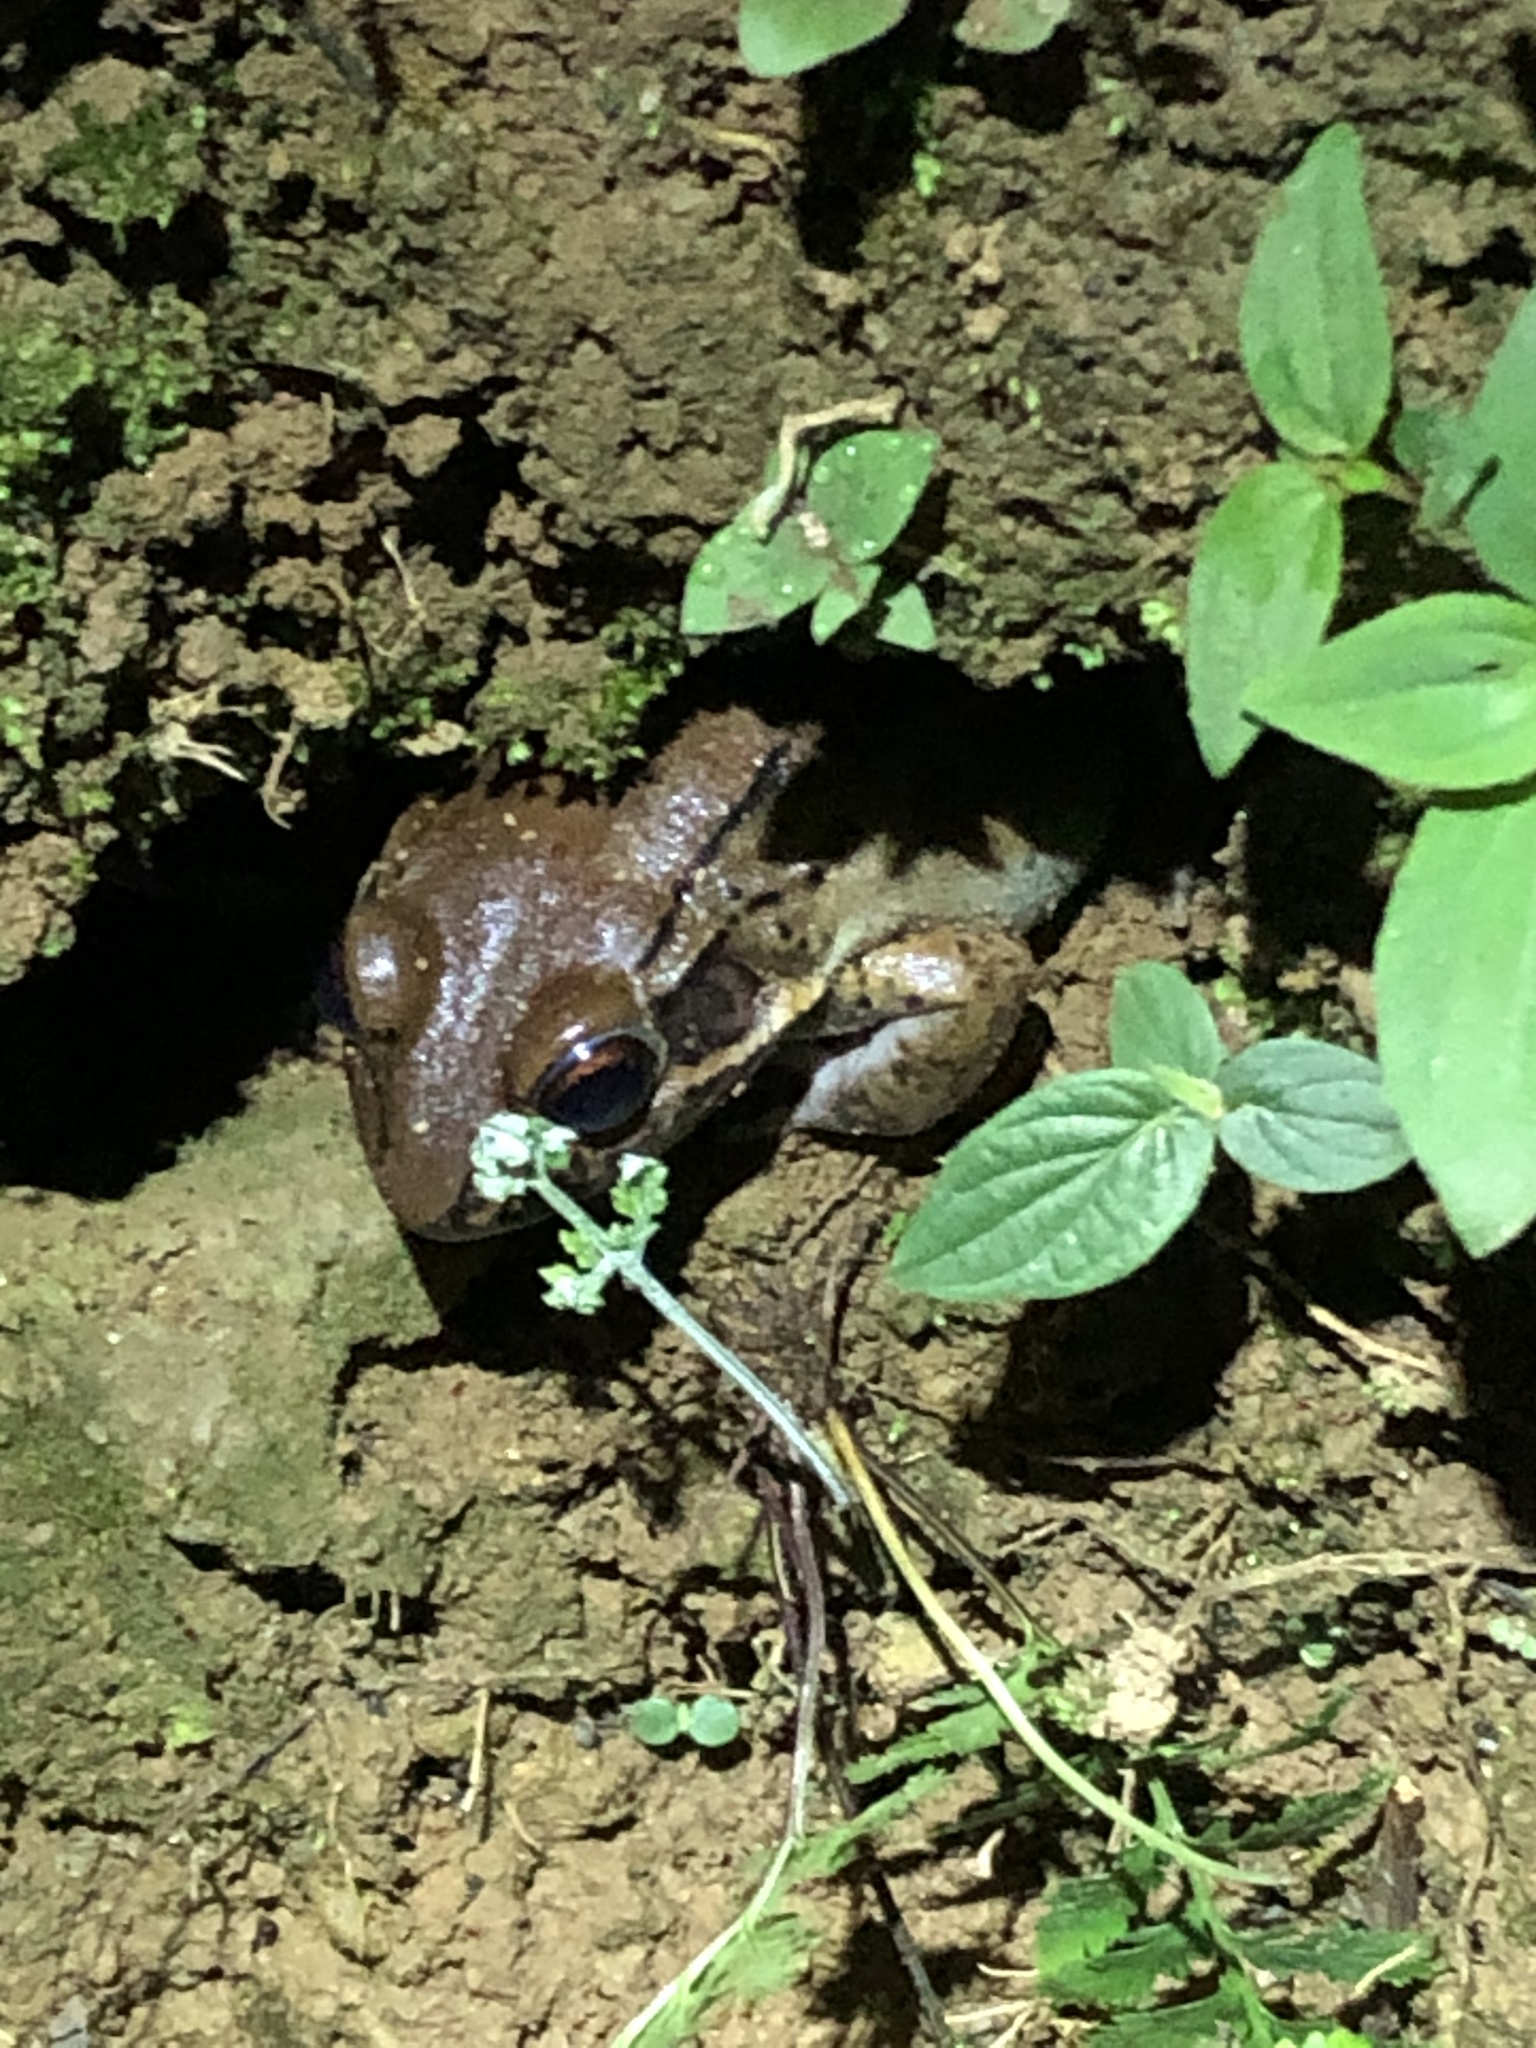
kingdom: Animalia
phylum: Chordata
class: Amphibia
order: Anura
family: Leptodactylidae
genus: Leptodactylus
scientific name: Leptodactylus rhodonotus
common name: Peru white-lipped frog
